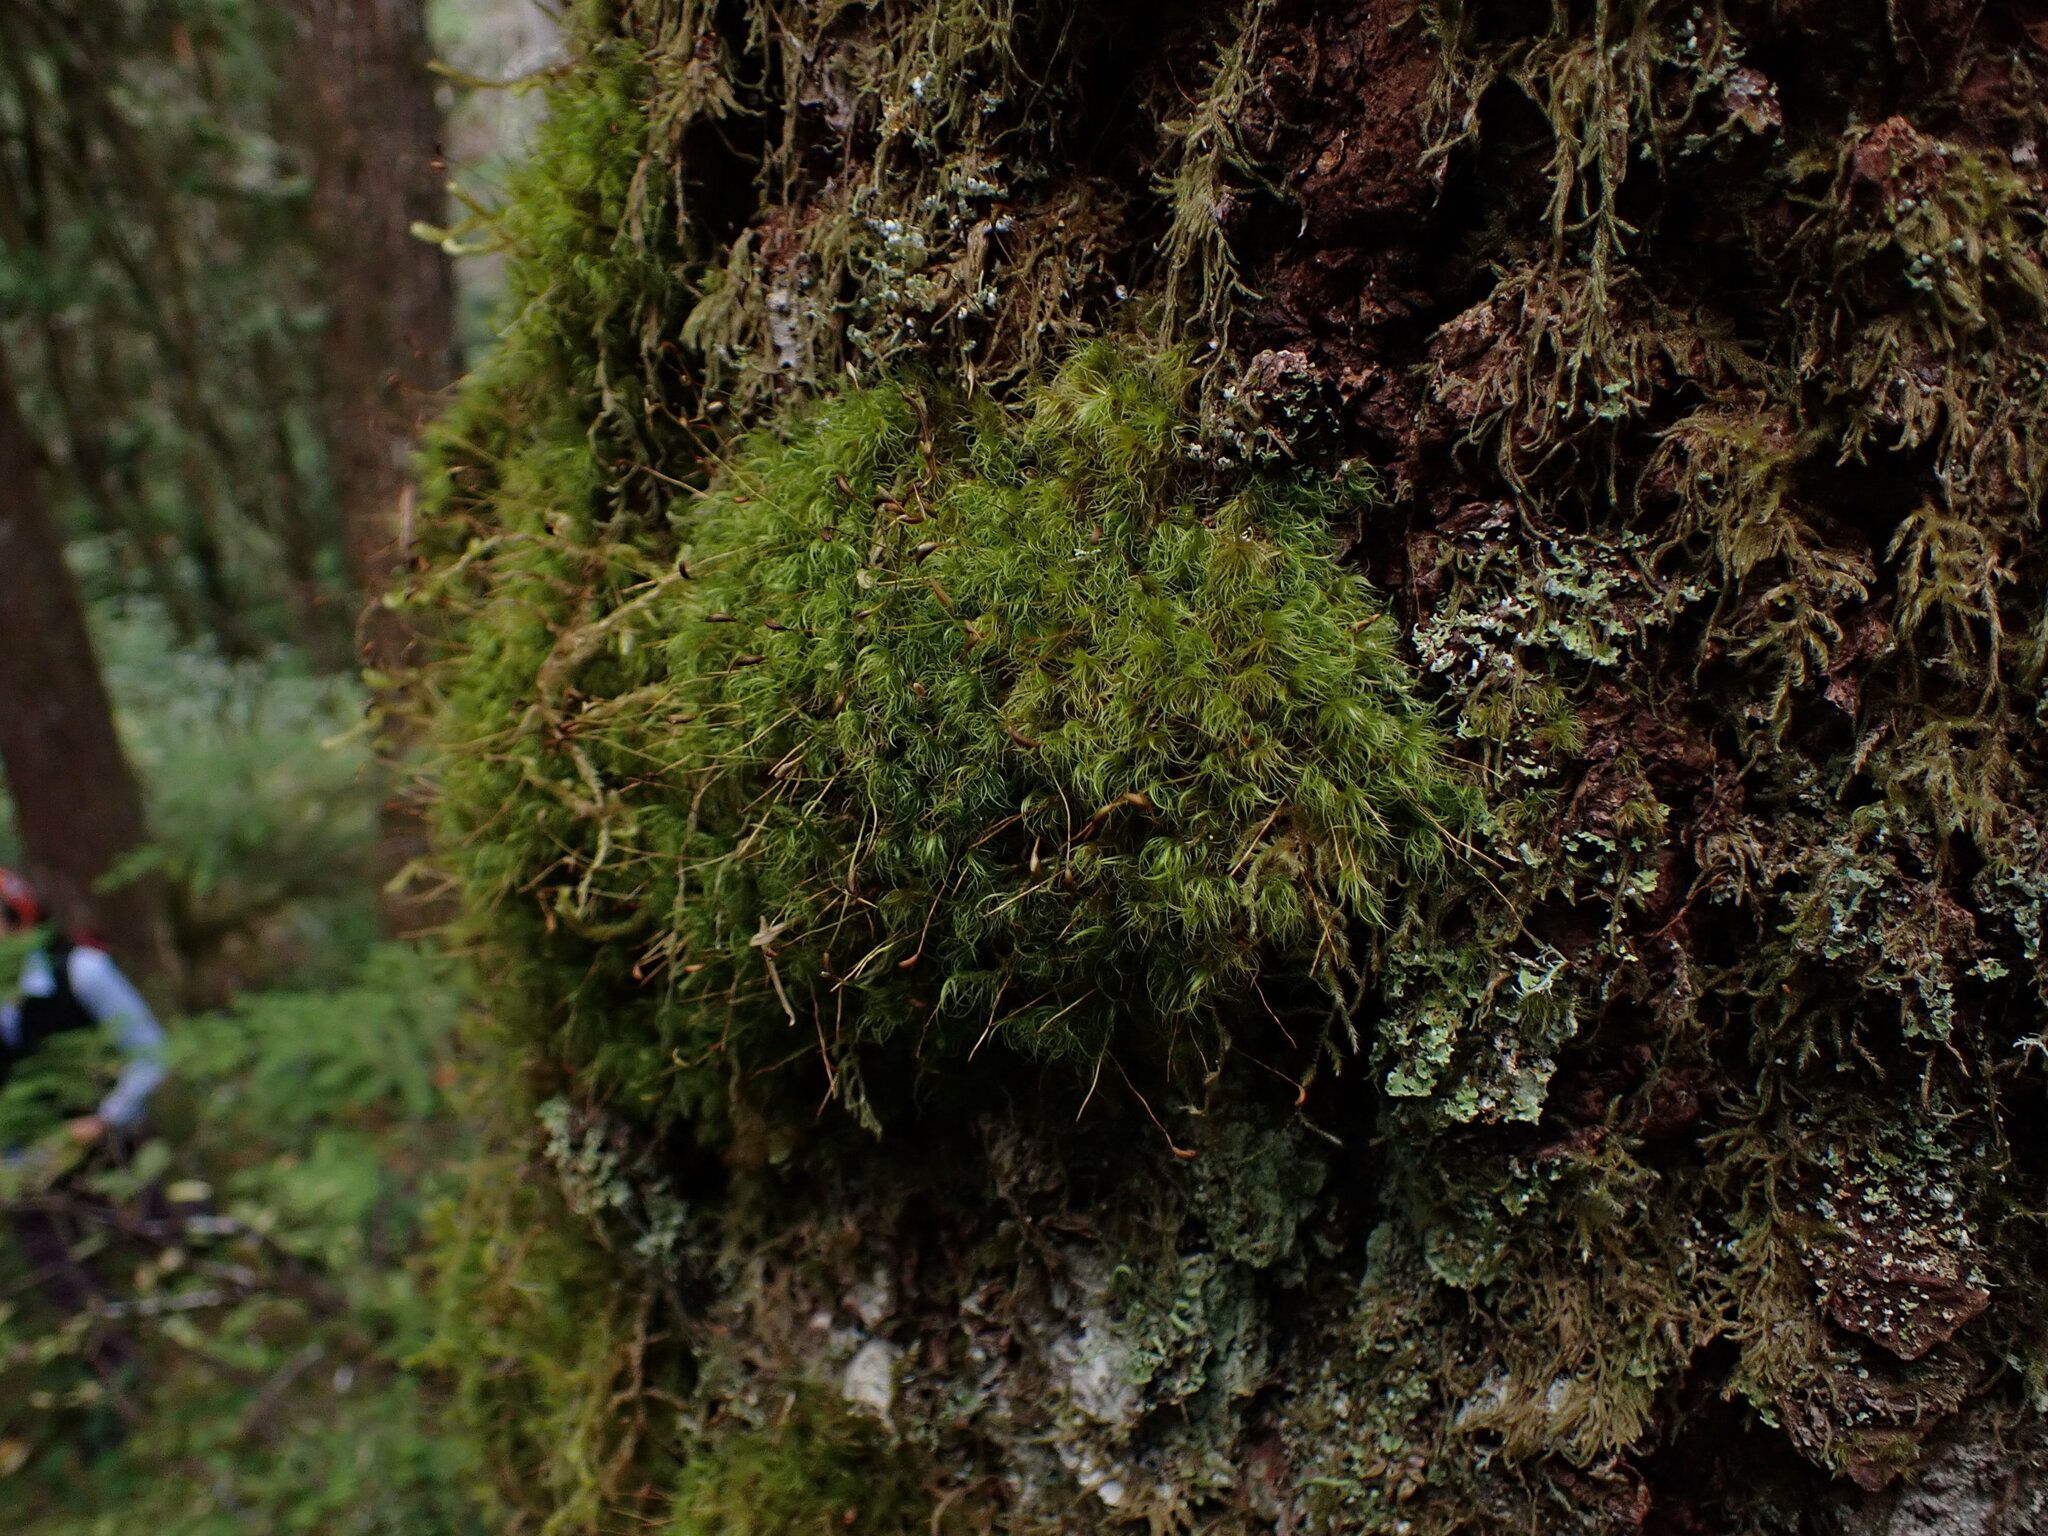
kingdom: Plantae
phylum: Bryophyta
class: Bryopsida
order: Dicranales
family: Dicranaceae
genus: Dicranum
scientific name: Dicranum fuscescens
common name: Curly heron's-bill moss
